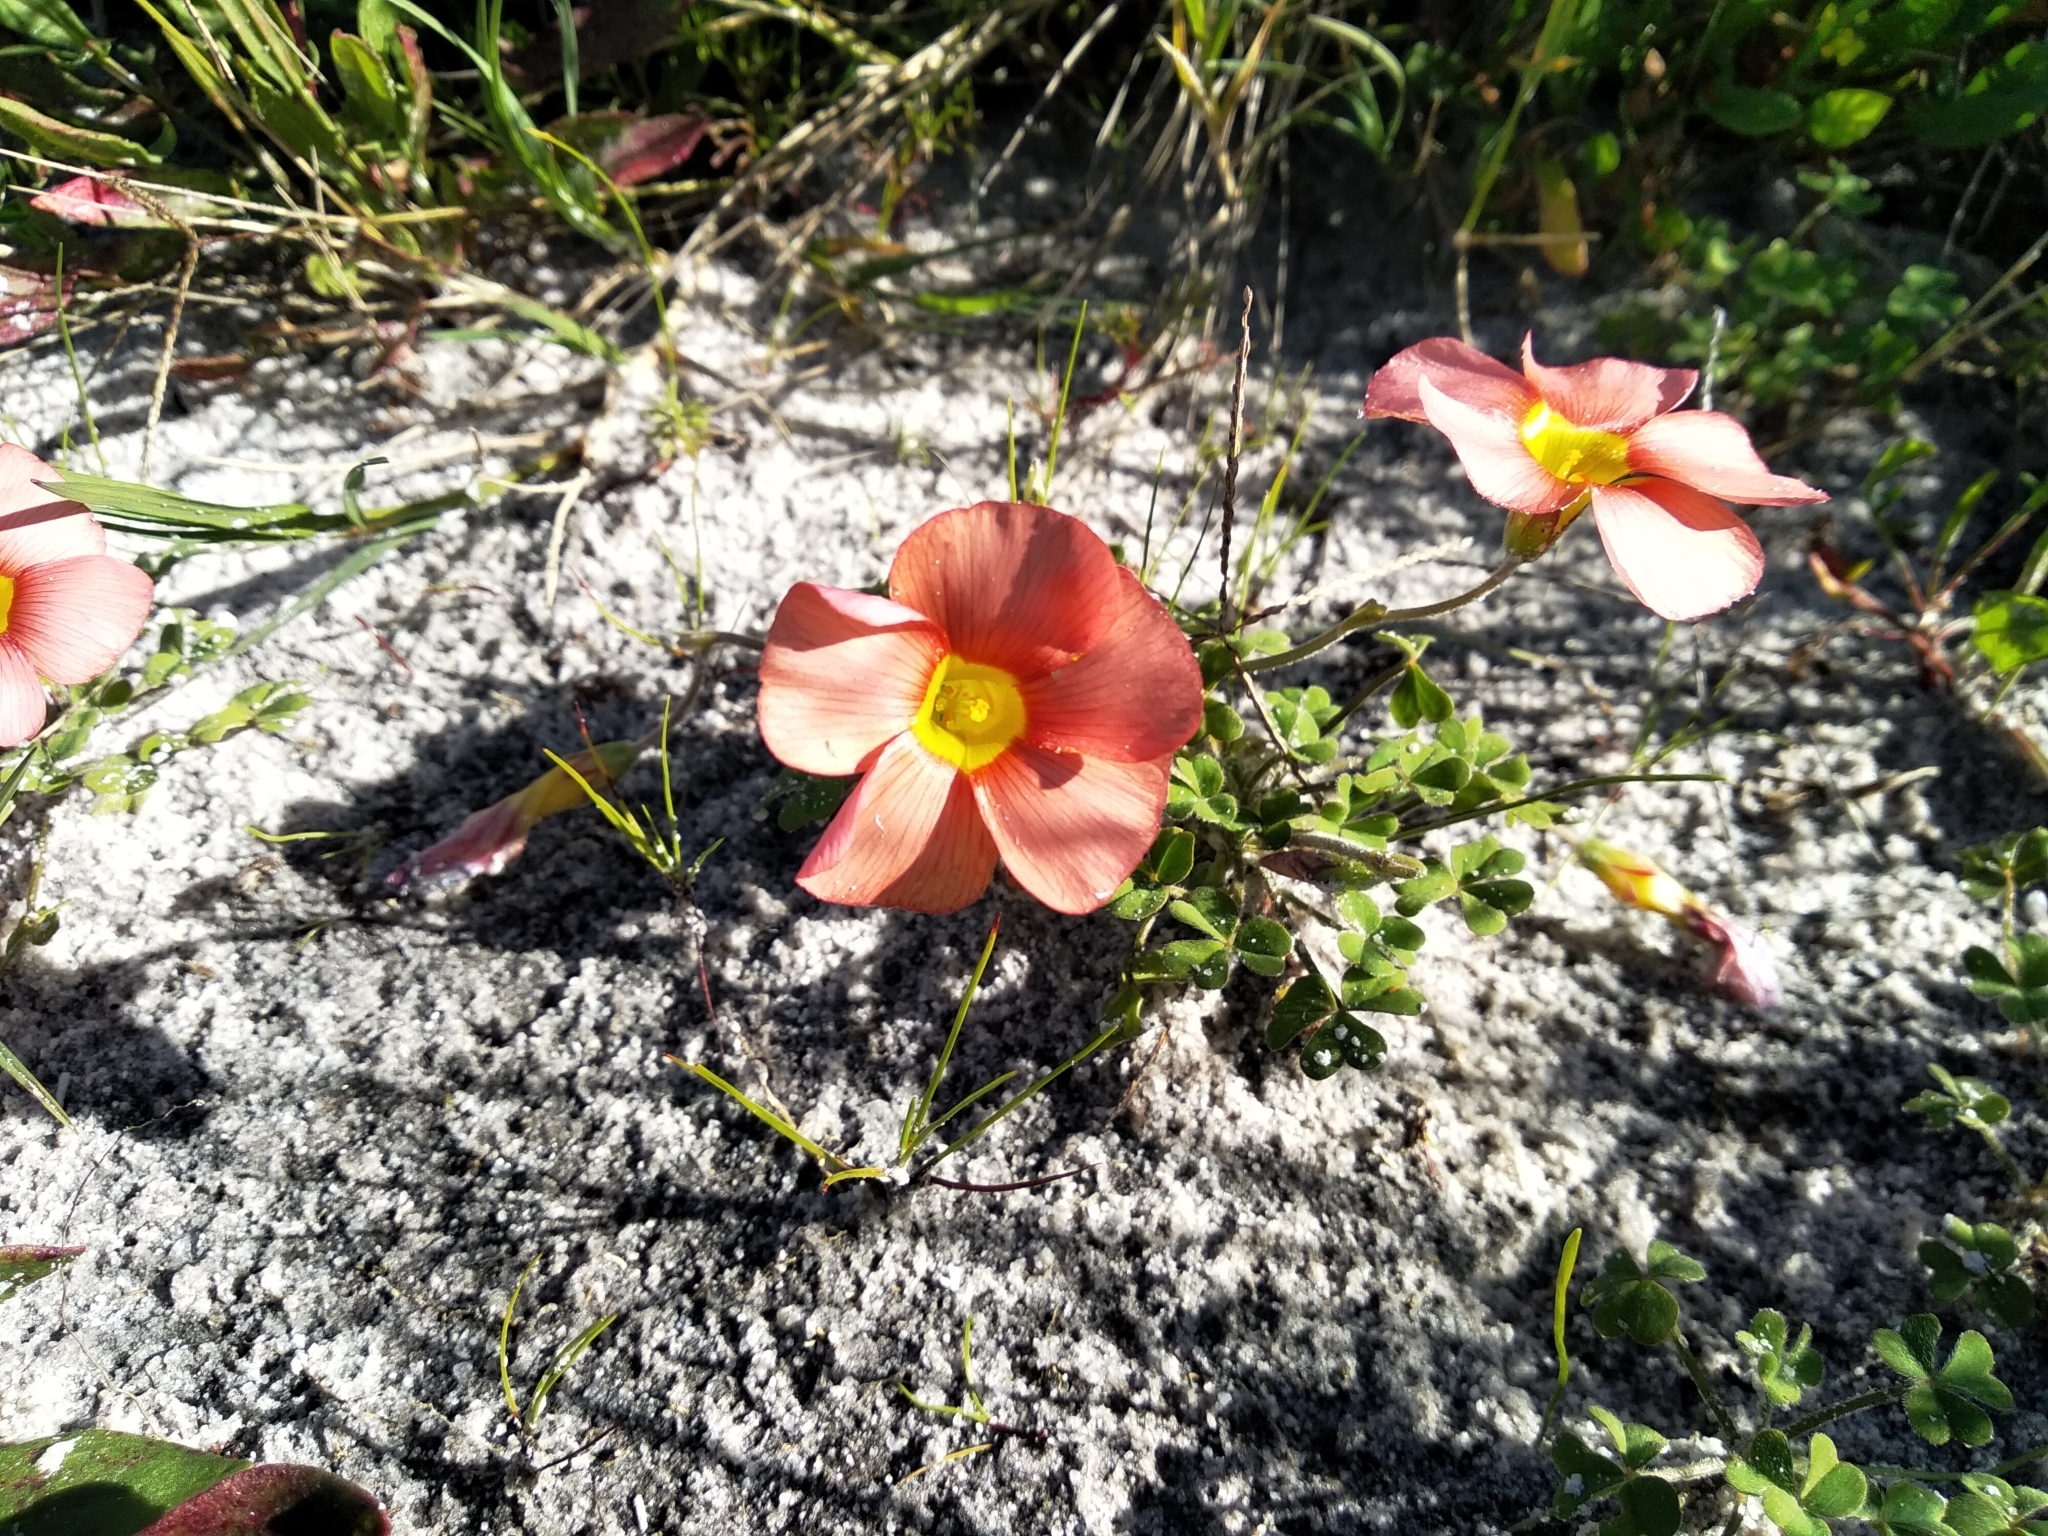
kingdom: Plantae
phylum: Tracheophyta
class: Magnoliopsida
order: Oxalidales
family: Oxalidaceae
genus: Oxalis
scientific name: Oxalis obtusa
